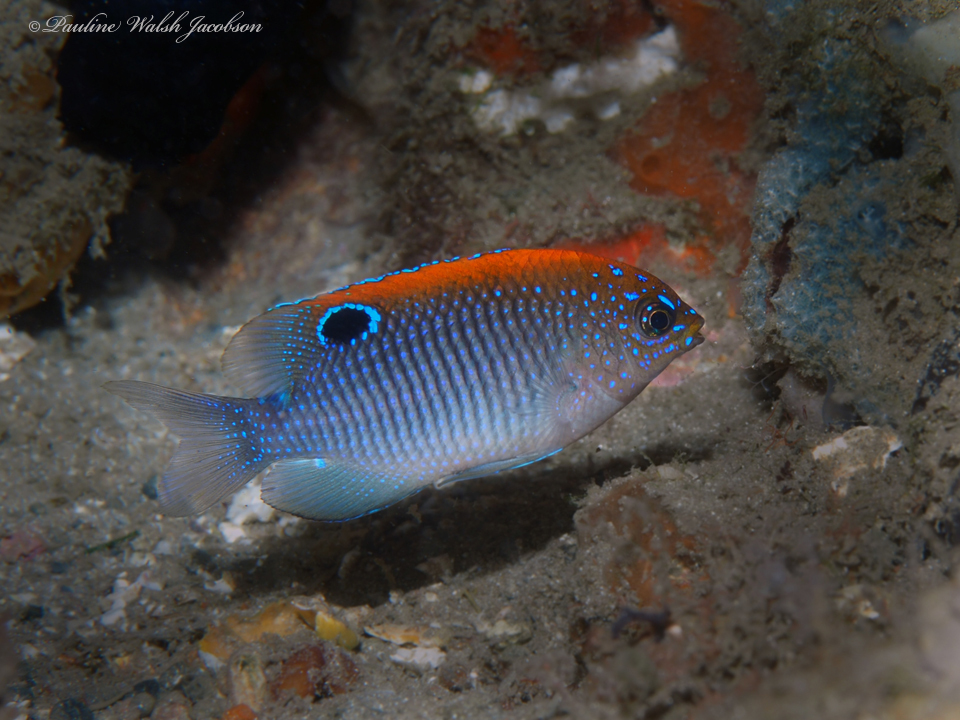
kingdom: Animalia
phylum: Chordata
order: Perciformes
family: Pomacentridae
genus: Stegastes
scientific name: Stegastes adustus
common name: Dusky damselfish
